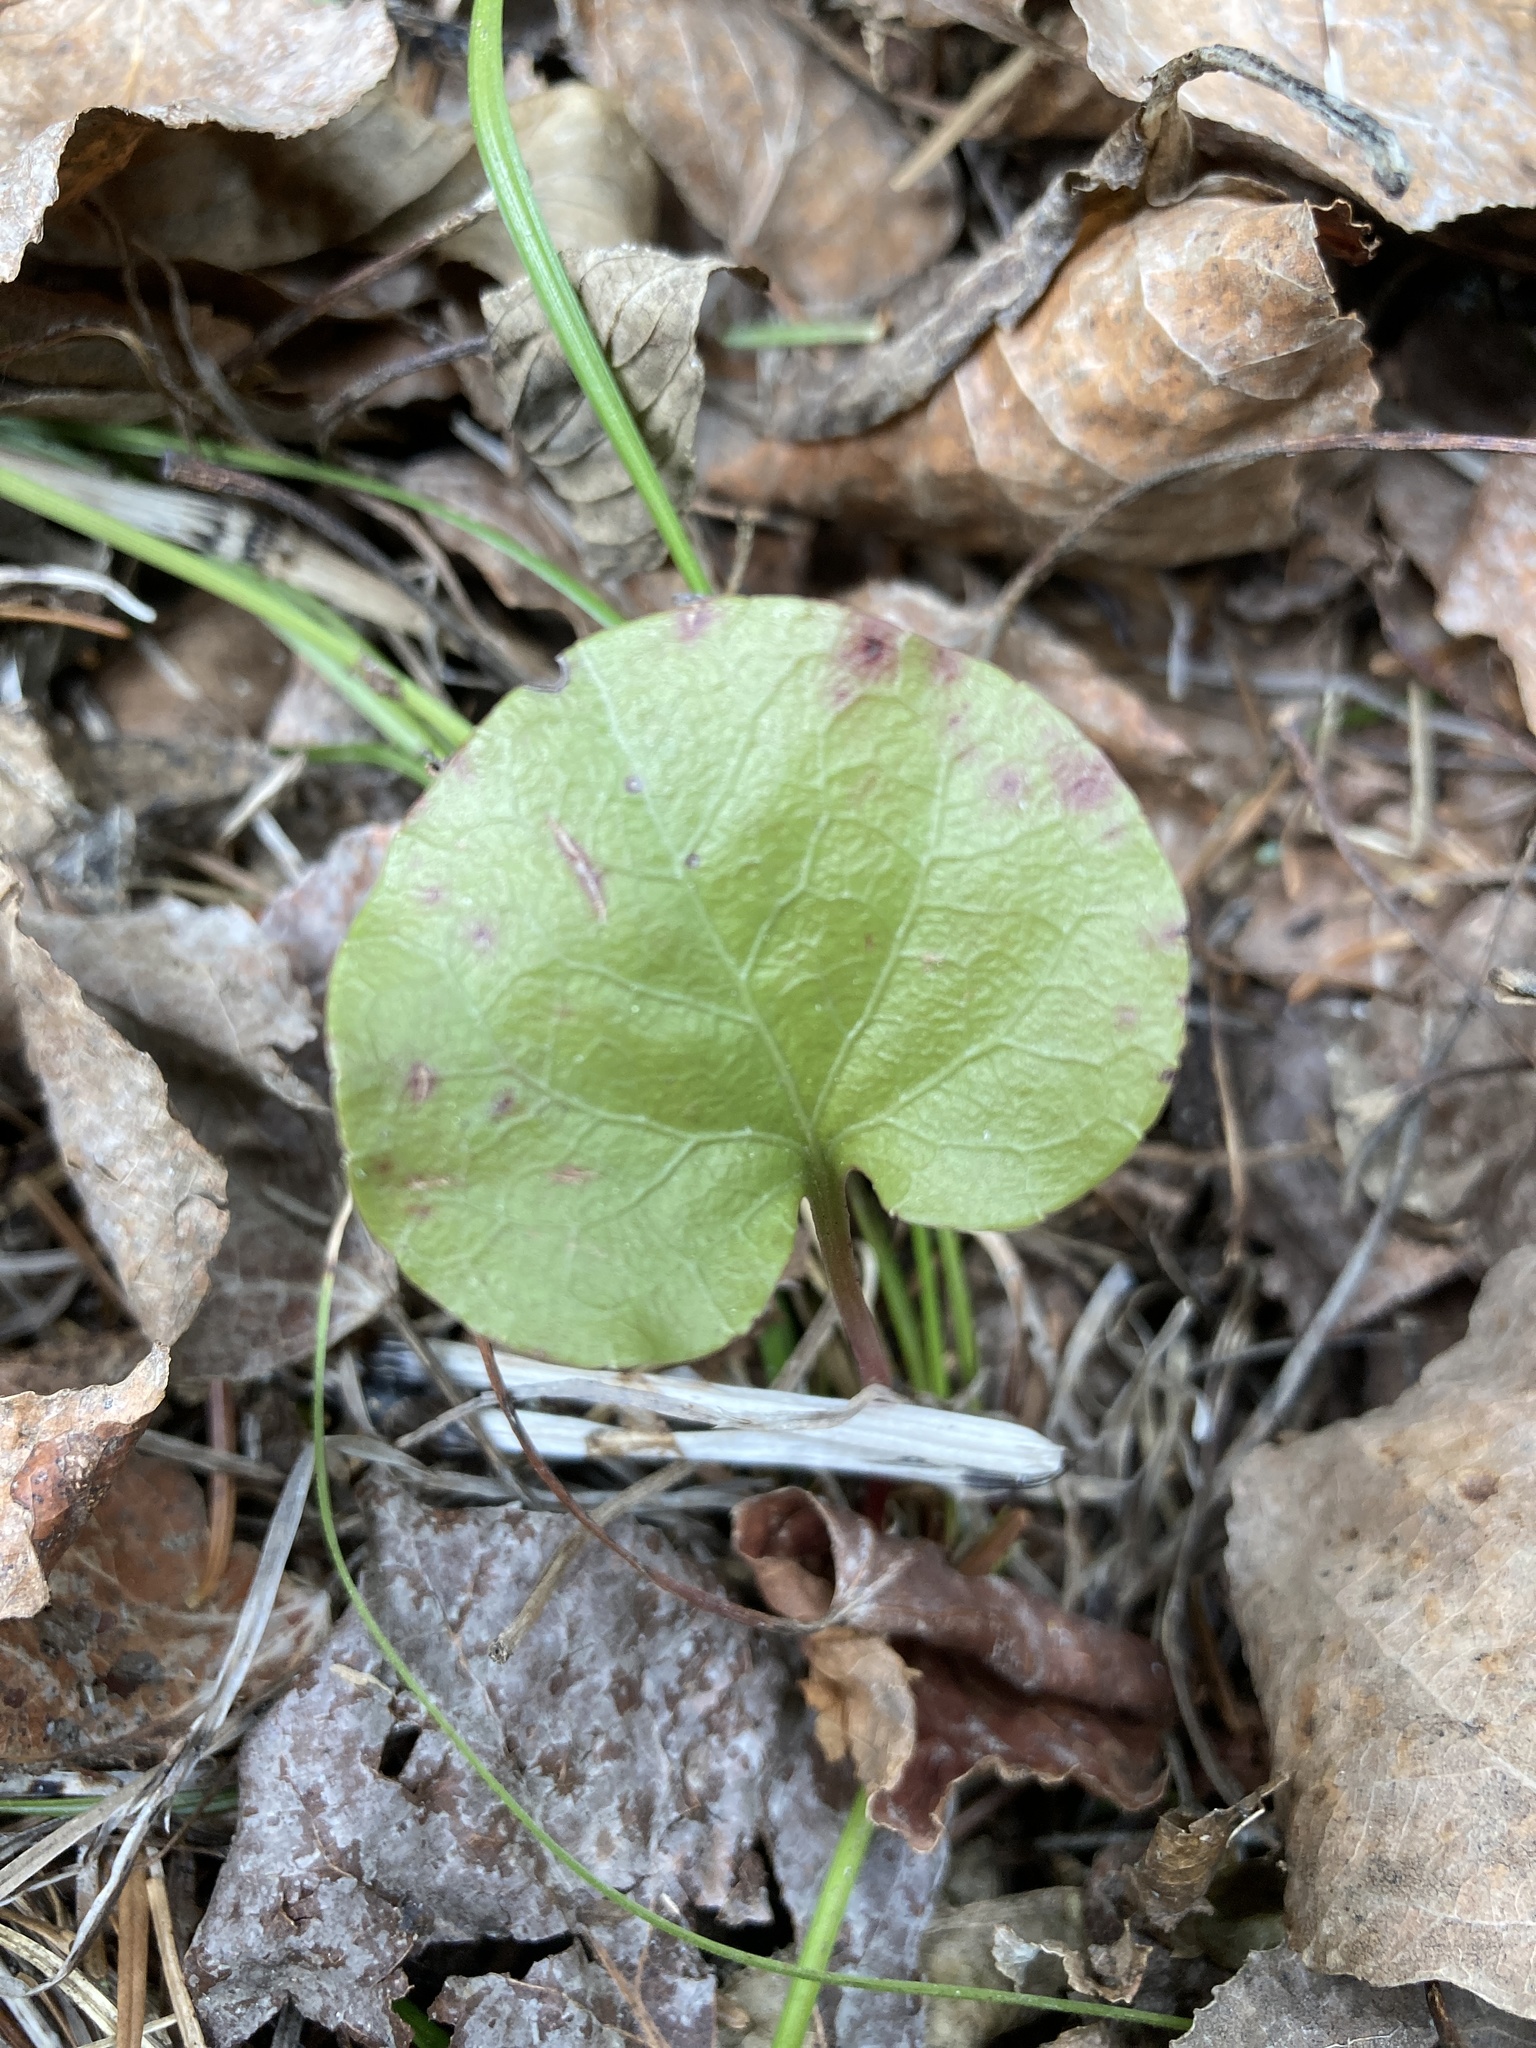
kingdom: Plantae
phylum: Tracheophyta
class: Magnoliopsida
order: Ericales
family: Ericaceae
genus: Pyrola
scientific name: Pyrola asarifolia
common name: Bog wintergreen
